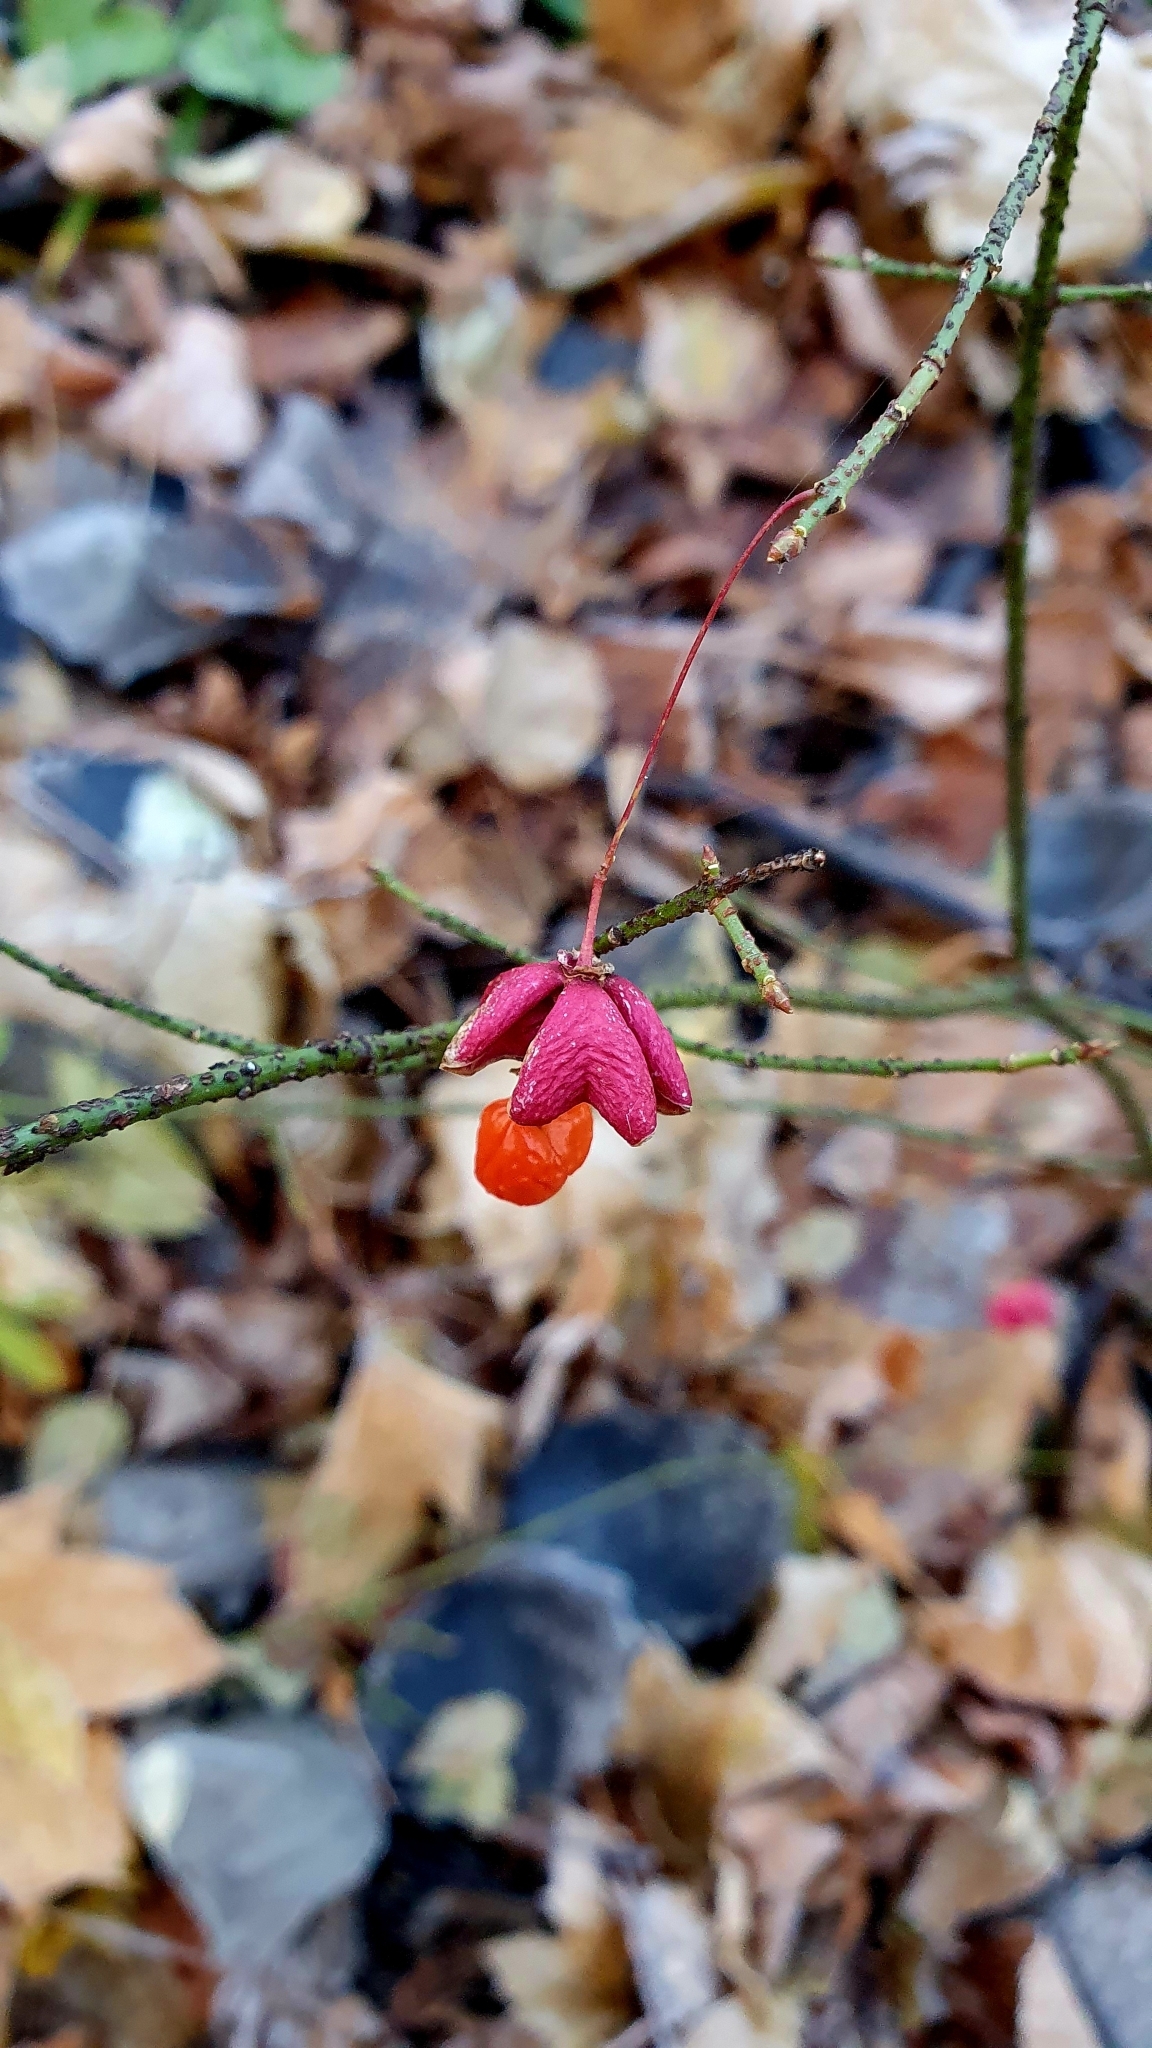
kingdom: Plantae
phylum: Tracheophyta
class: Magnoliopsida
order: Celastrales
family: Celastraceae
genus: Euonymus
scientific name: Euonymus verrucosus
